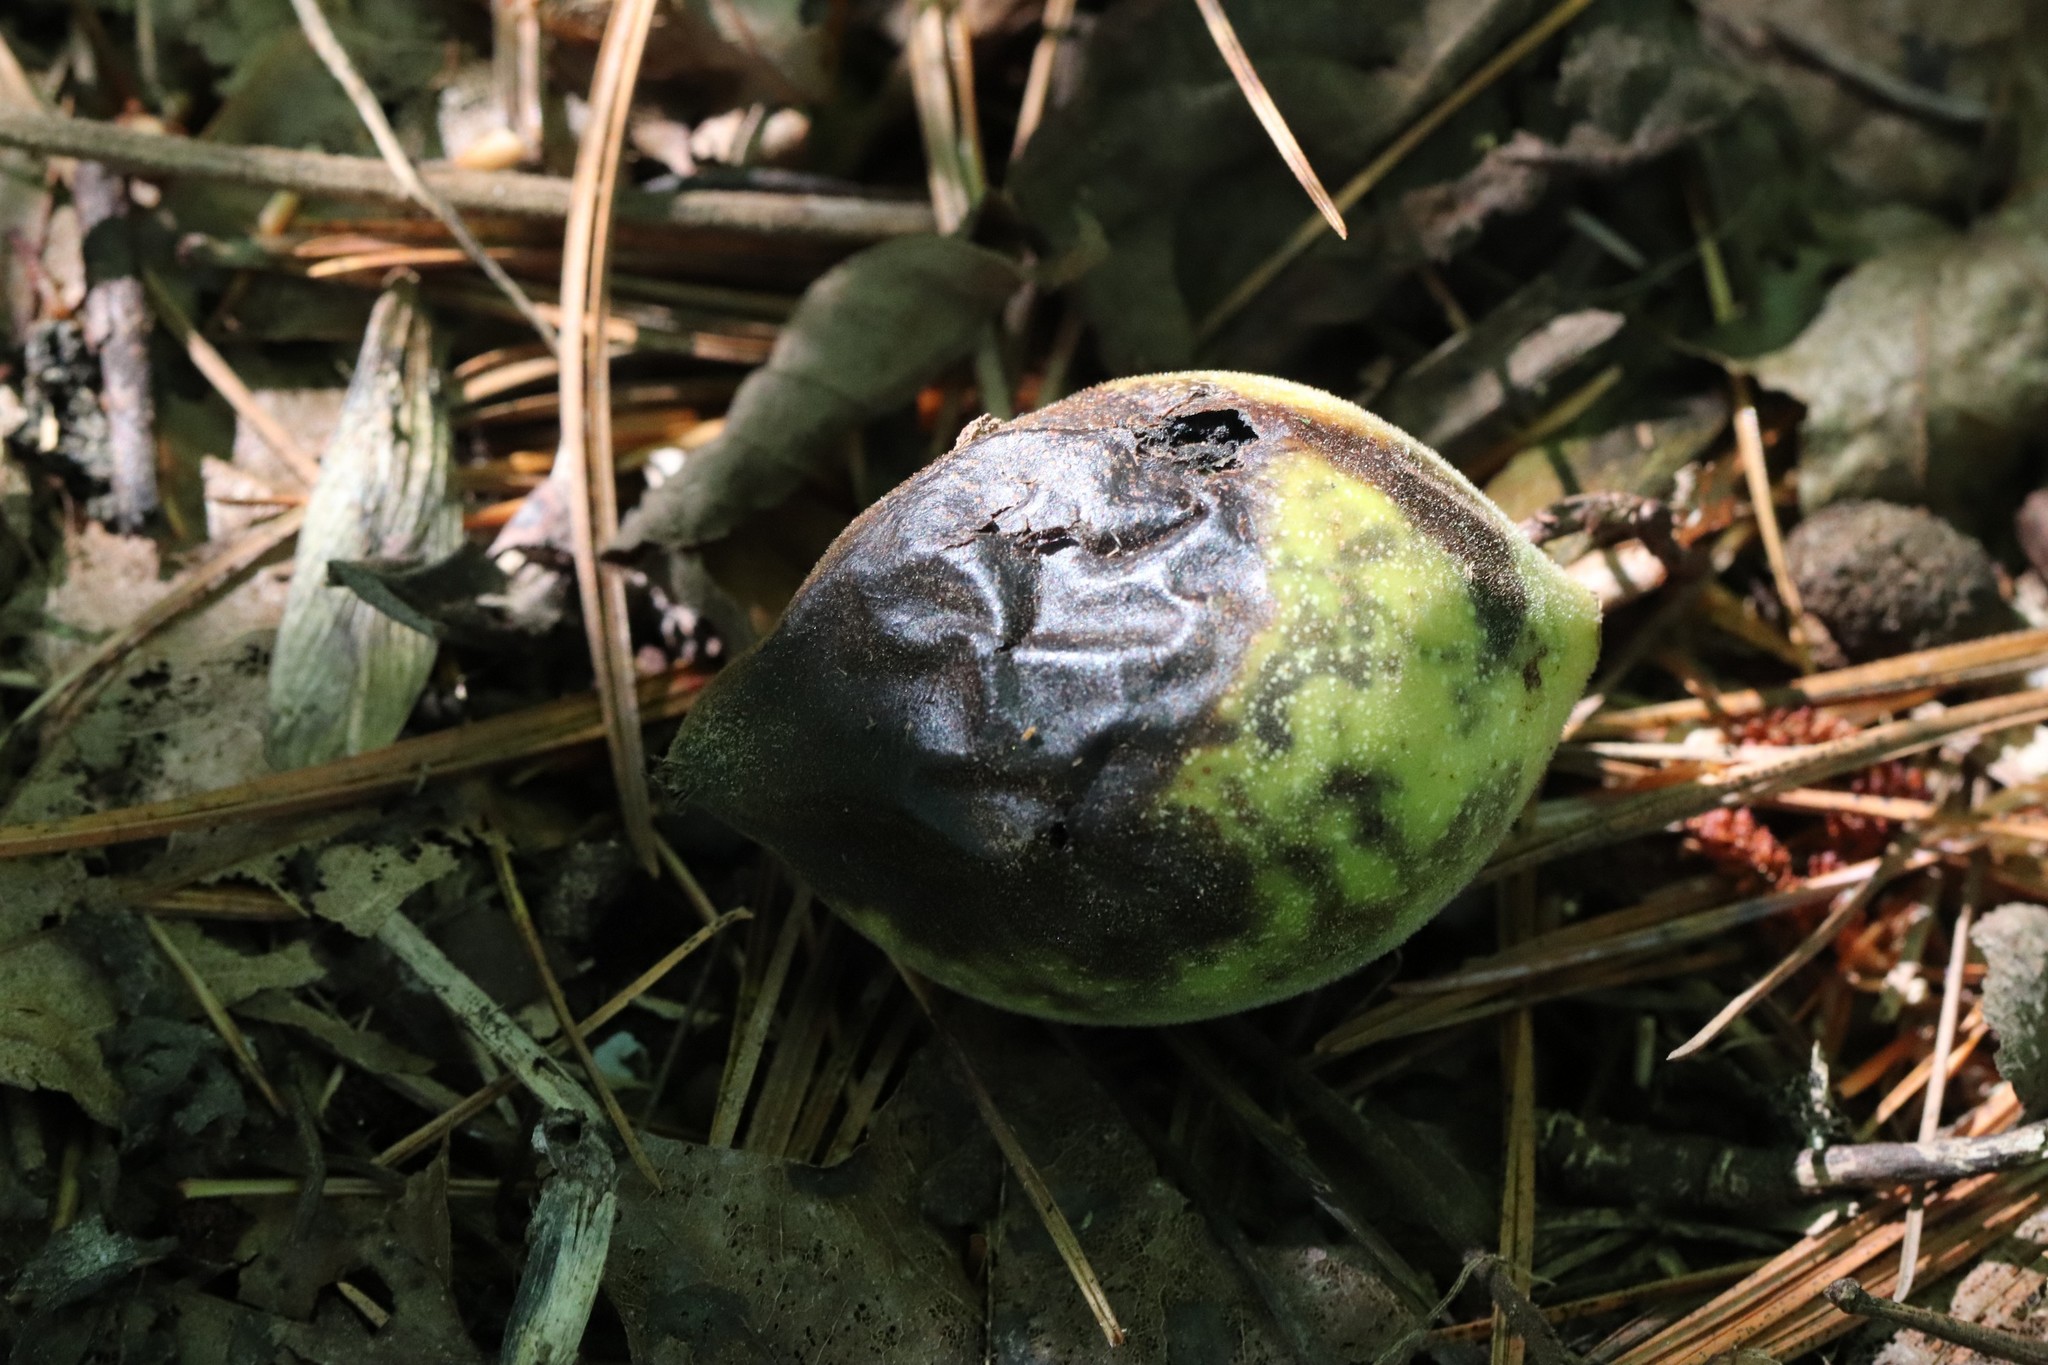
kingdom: Plantae
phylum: Tracheophyta
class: Magnoliopsida
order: Fagales
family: Juglandaceae
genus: Juglans
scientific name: Juglans mandshurica
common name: Manchurian walnut
